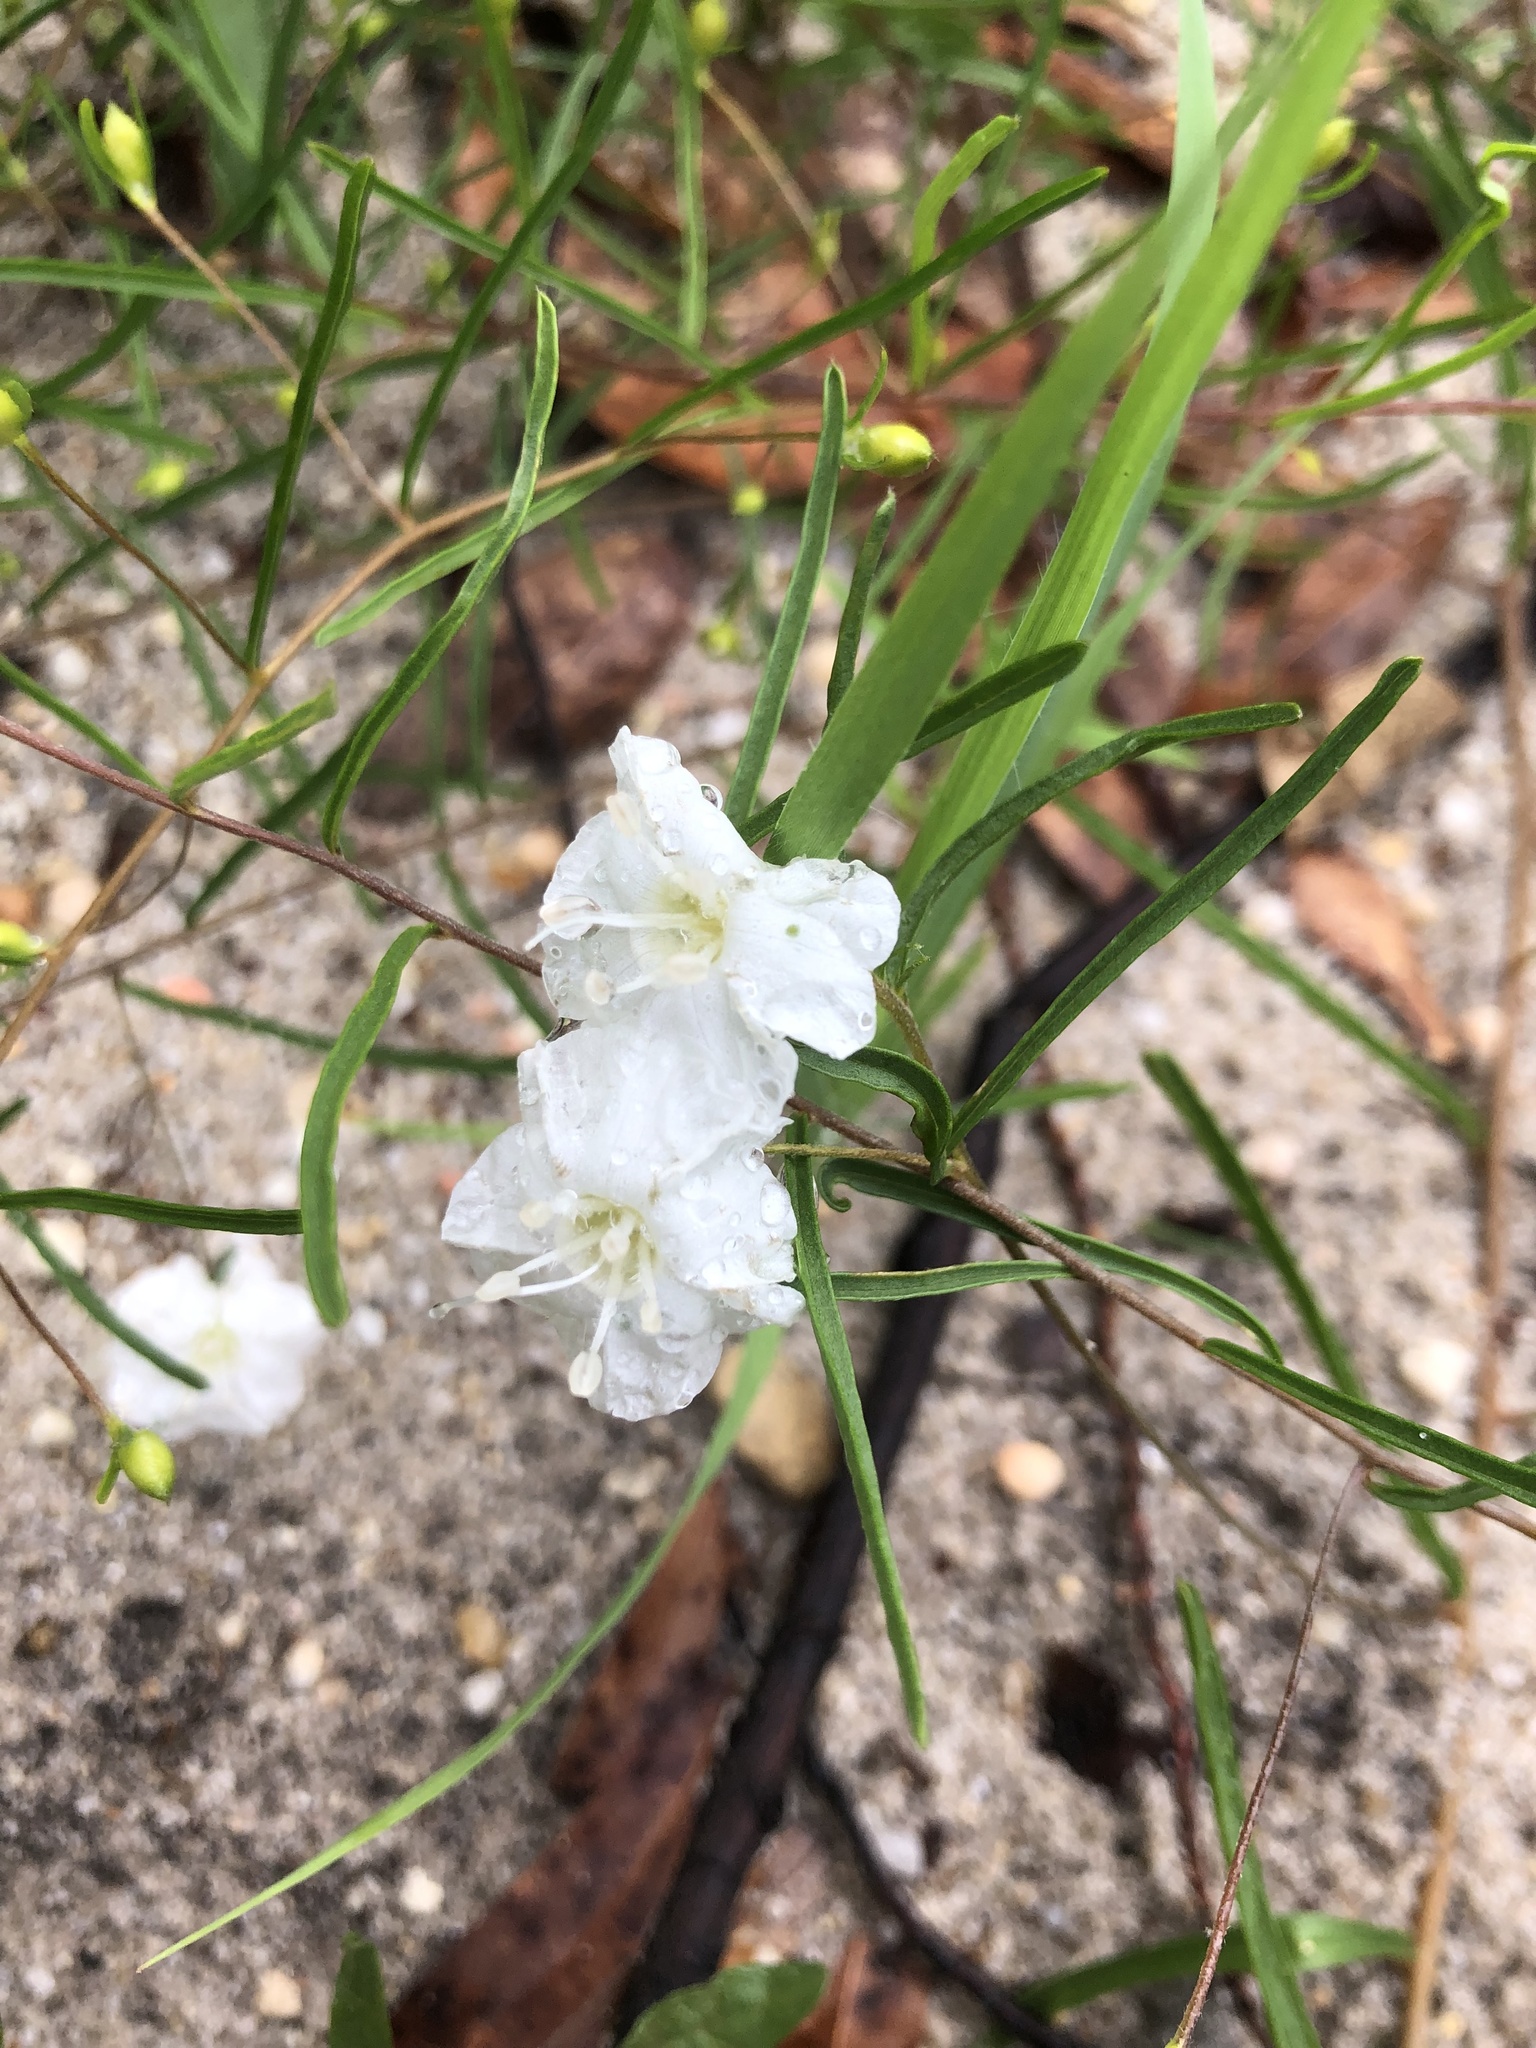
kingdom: Plantae
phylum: Tracheophyta
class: Magnoliopsida
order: Solanales
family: Convolvulaceae
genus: Stylisma
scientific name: Stylisma pickeringii
